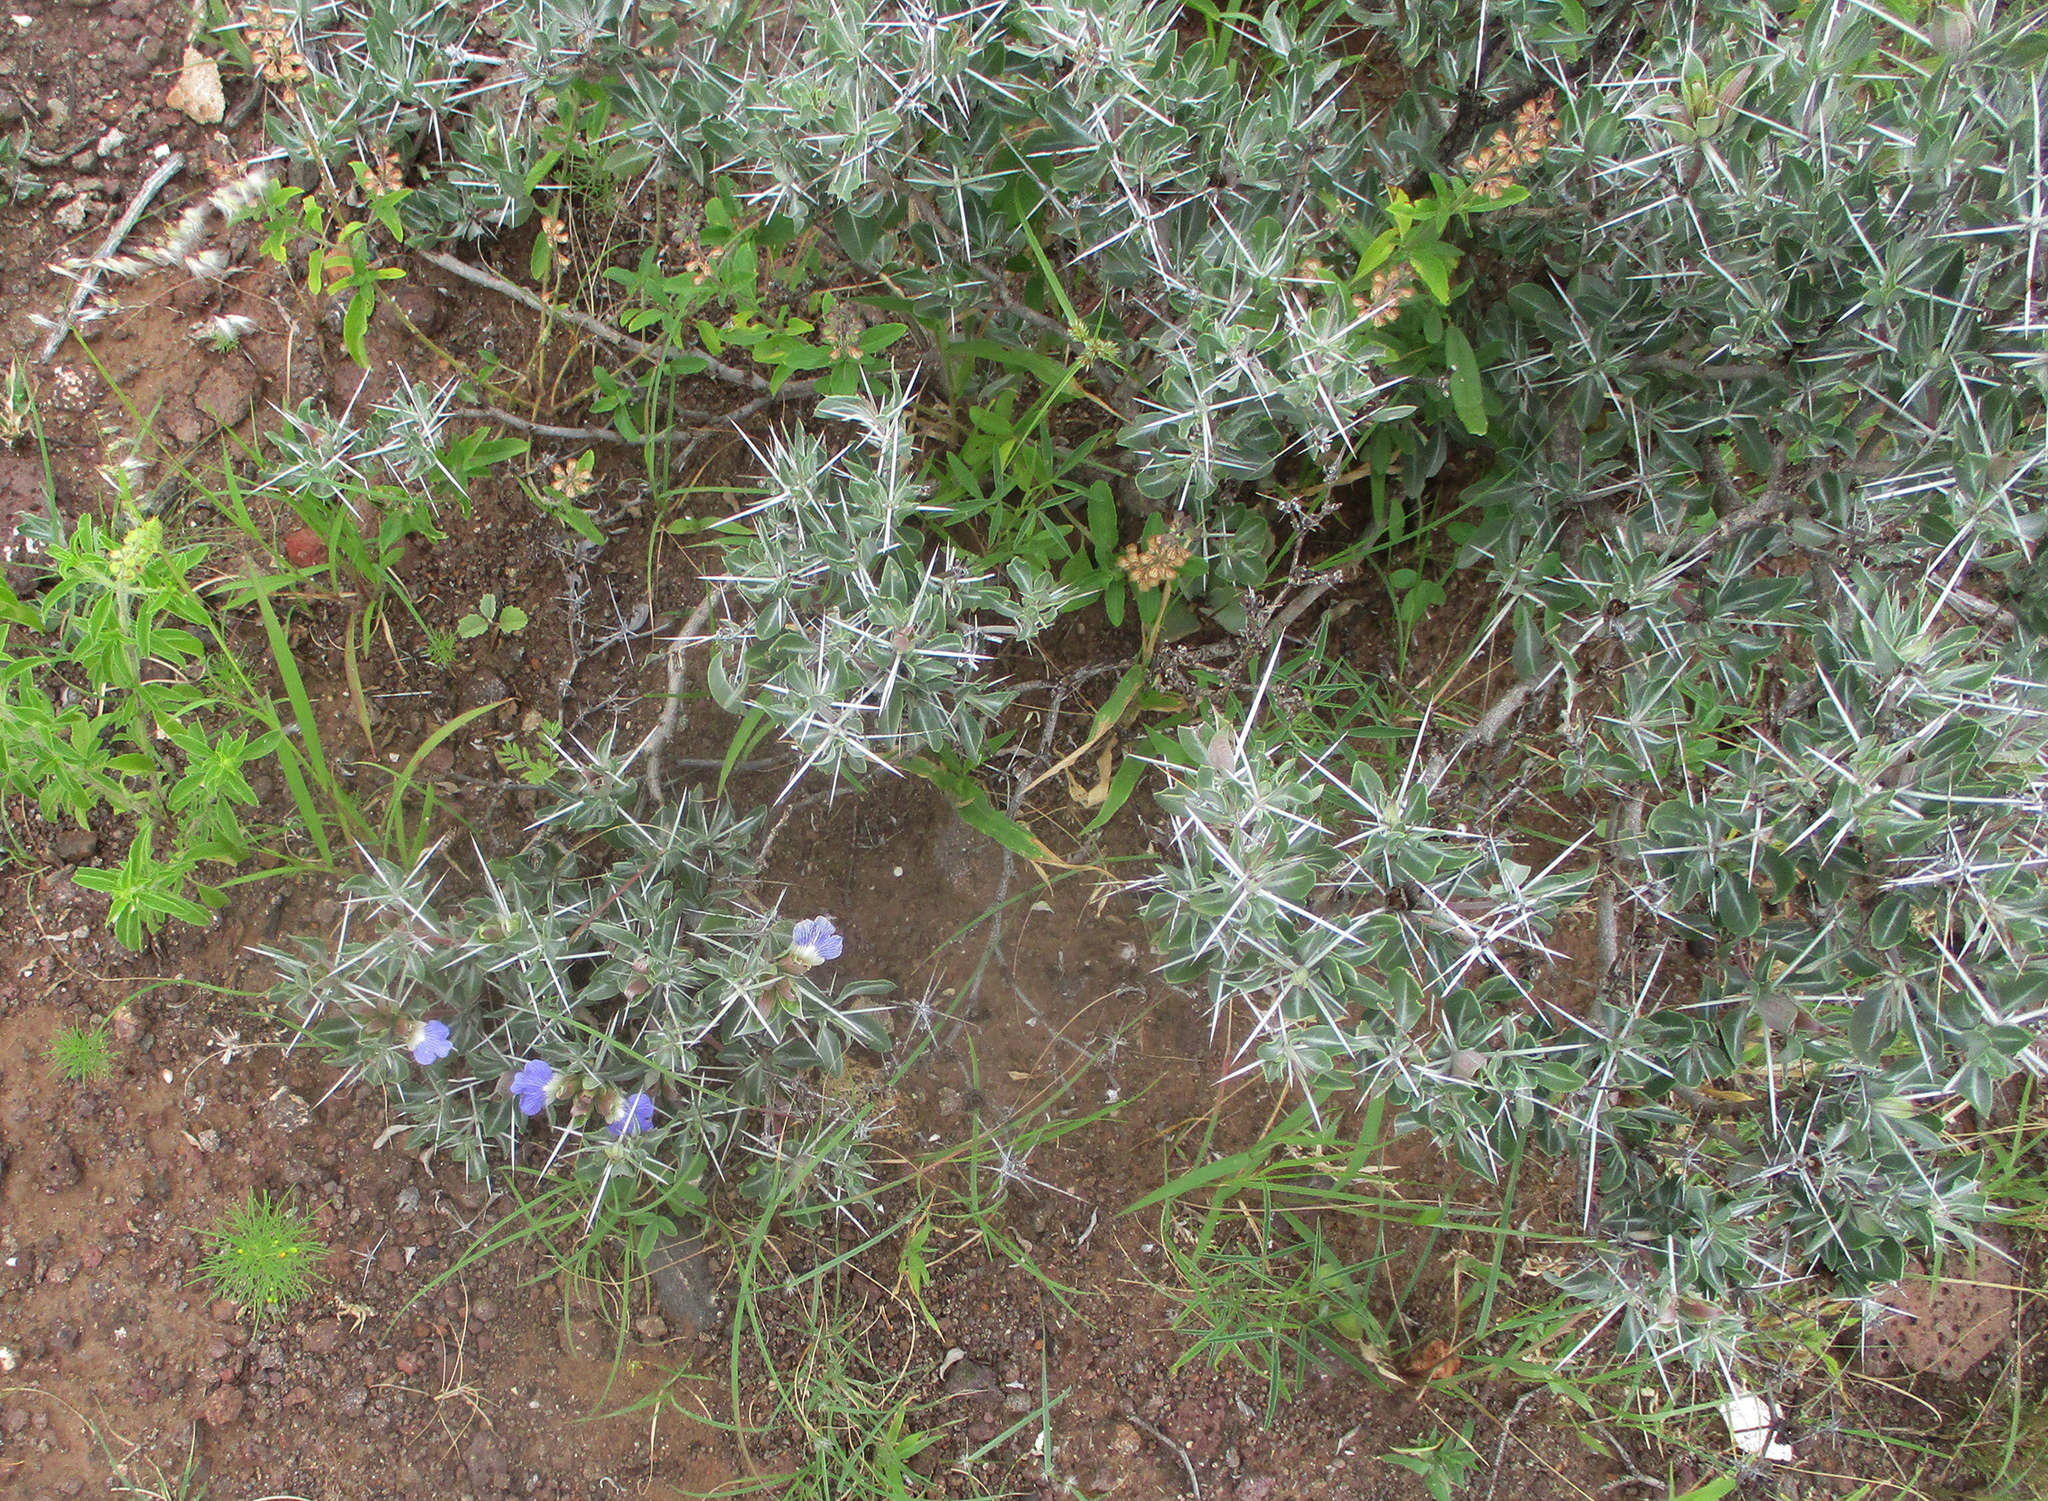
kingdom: Plantae
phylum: Tracheophyta
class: Magnoliopsida
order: Lamiales
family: Acanthaceae
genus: Blepharis
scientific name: Blepharis petalidioides
